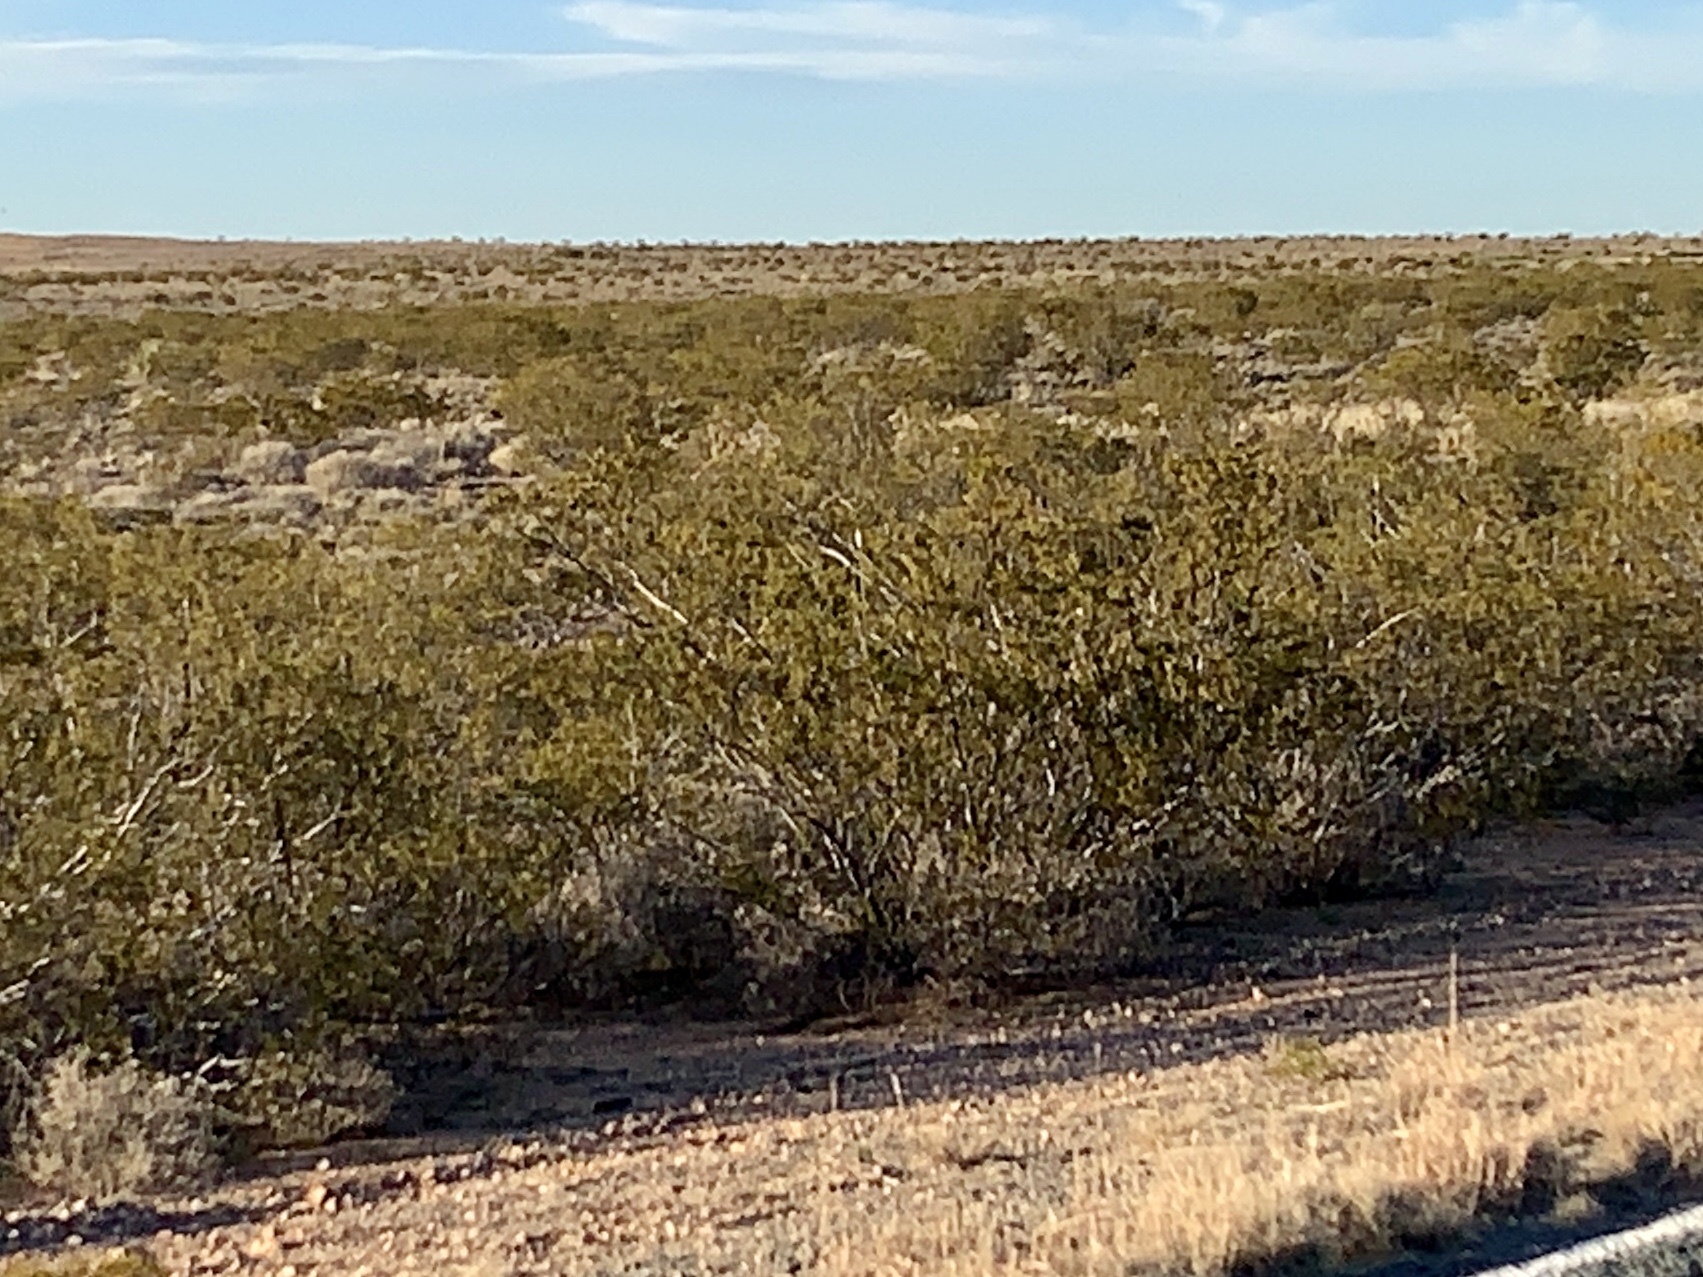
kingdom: Plantae
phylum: Tracheophyta
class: Magnoliopsida
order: Zygophyllales
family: Zygophyllaceae
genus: Larrea
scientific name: Larrea tridentata
